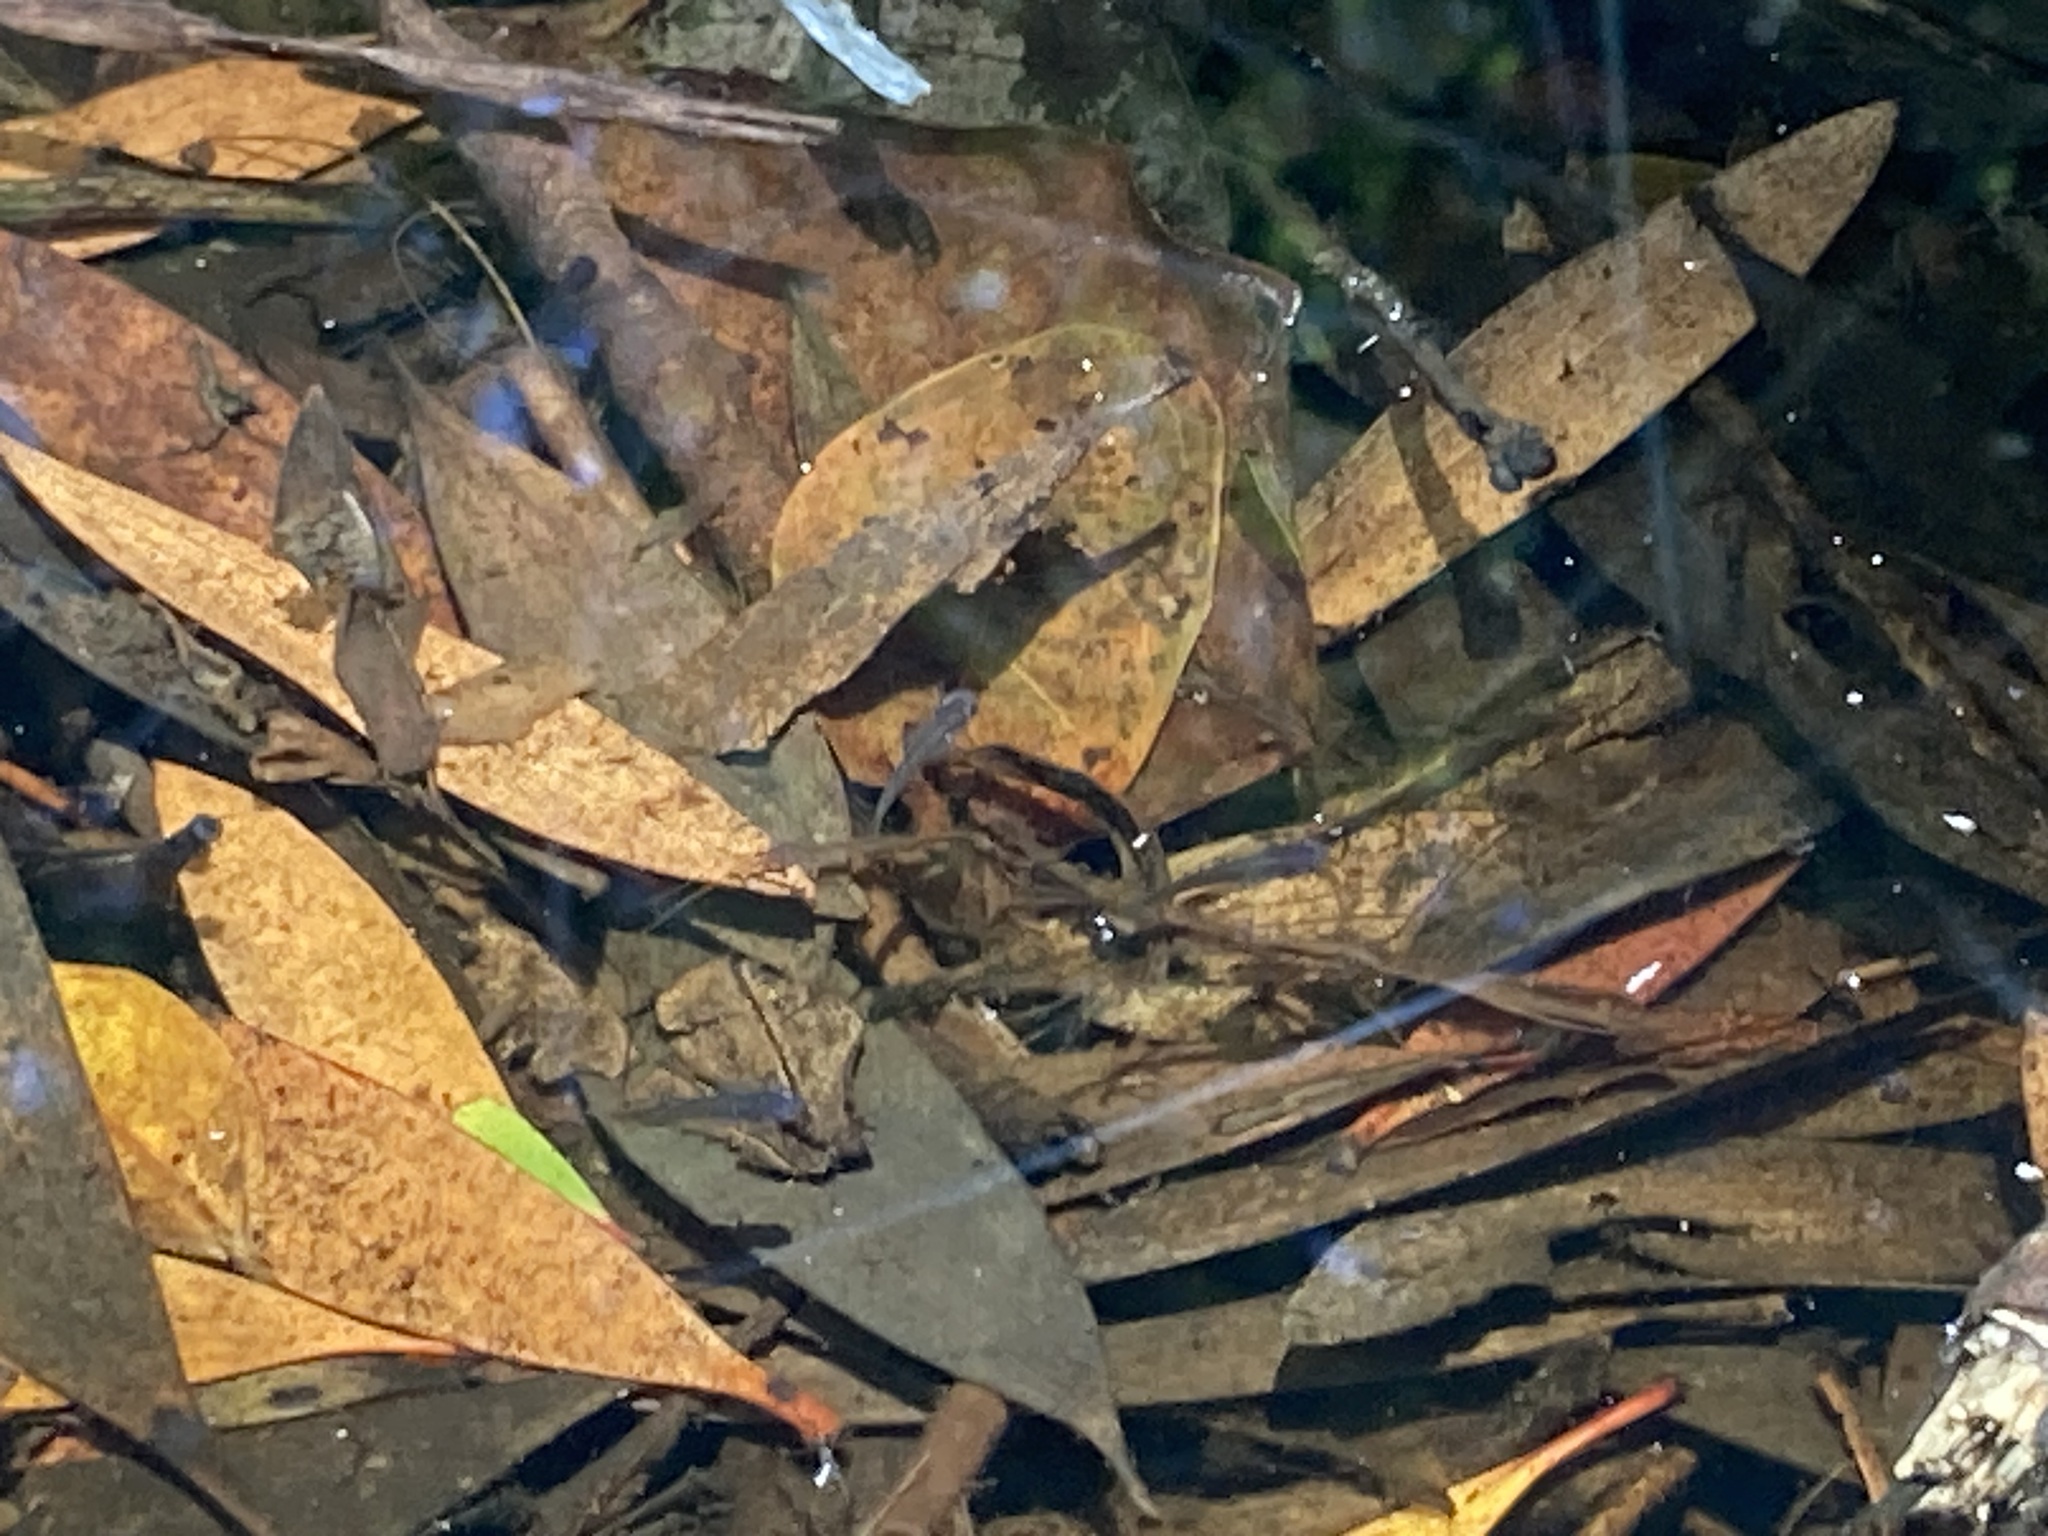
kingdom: Animalia
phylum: Chordata
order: Cyprinodontiformes
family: Poeciliidae
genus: Gambusia
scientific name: Gambusia holbrooki
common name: Eastern mosquitofish
